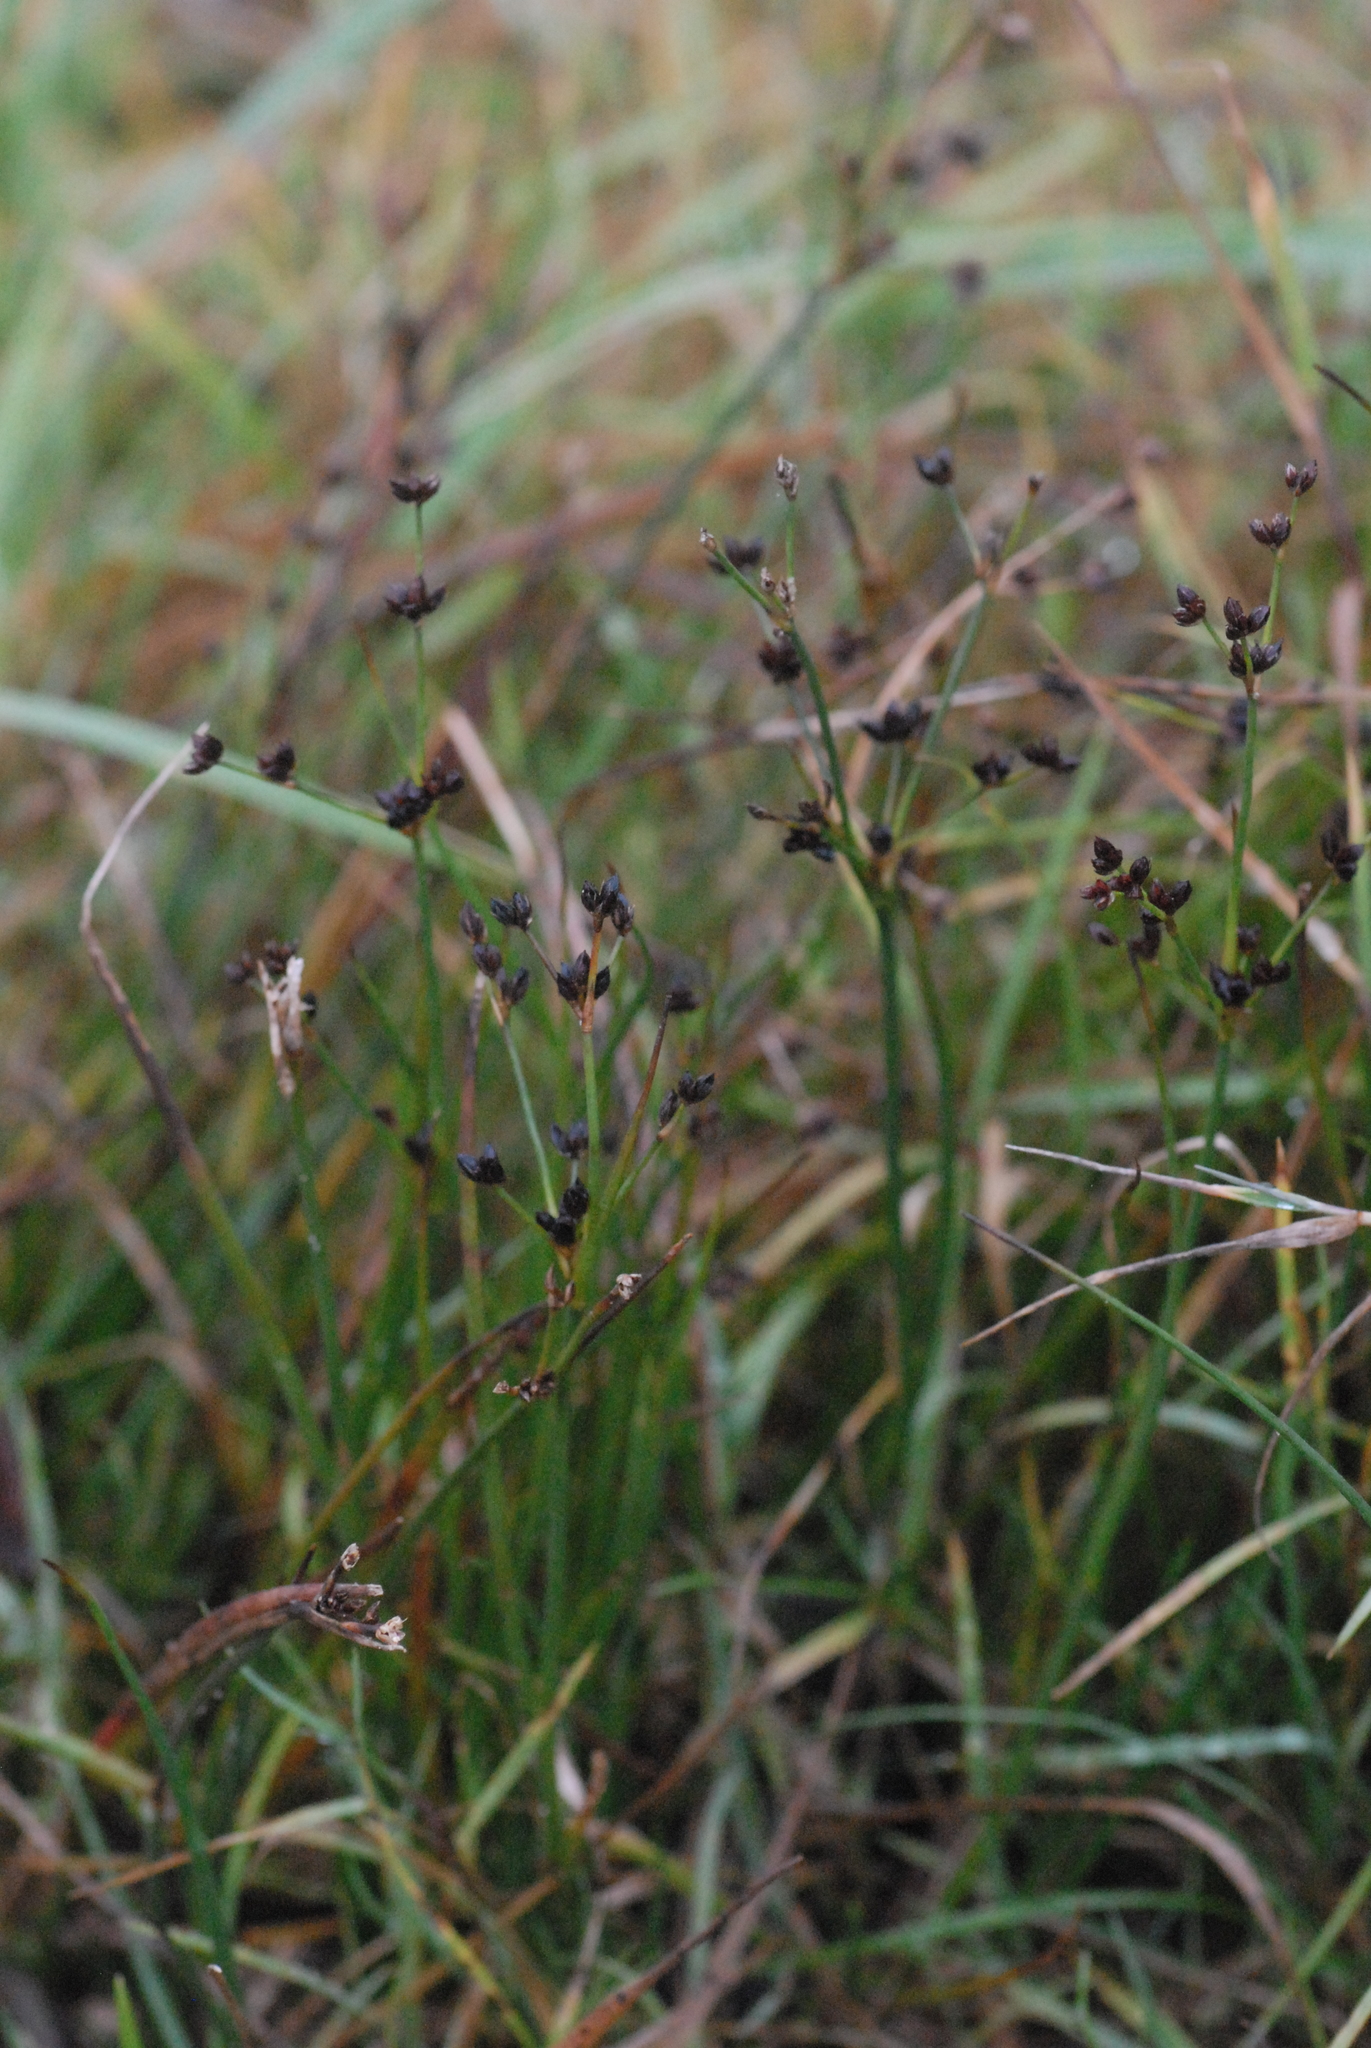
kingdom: Plantae
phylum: Tracheophyta
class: Liliopsida
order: Poales
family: Juncaceae
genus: Juncus
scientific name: Juncus alpinoarticulatus
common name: Alpine rush
